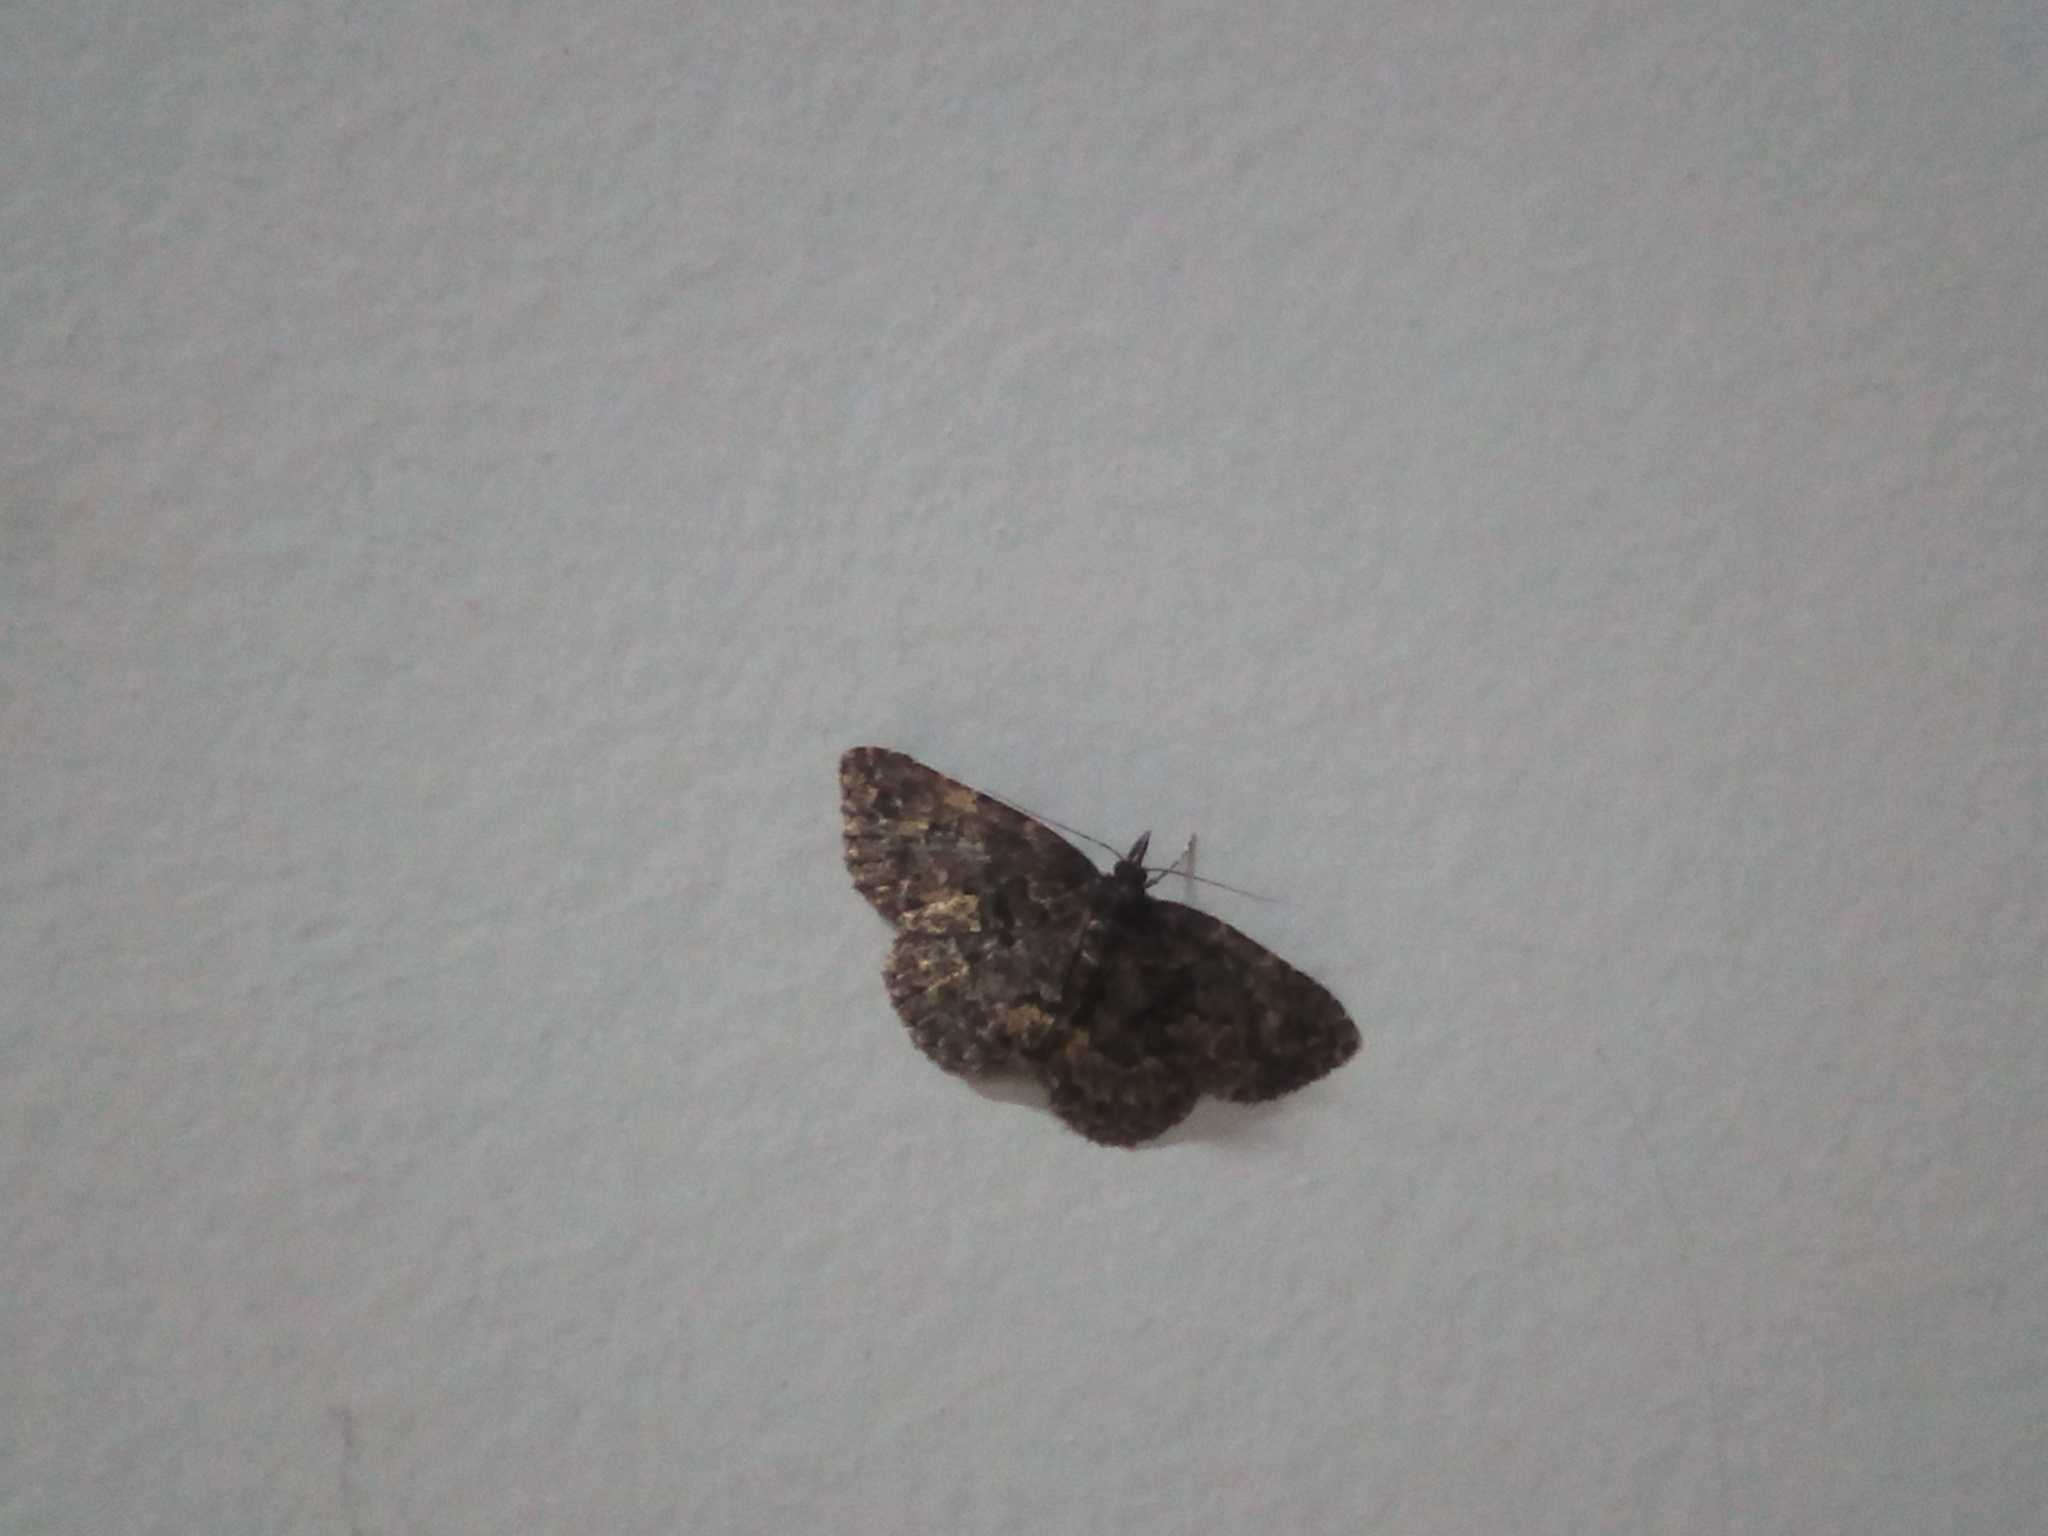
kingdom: Animalia
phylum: Arthropoda
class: Insecta
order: Lepidoptera
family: Erebidae
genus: Parascotia
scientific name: Parascotia fuliginaria
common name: Waved black
